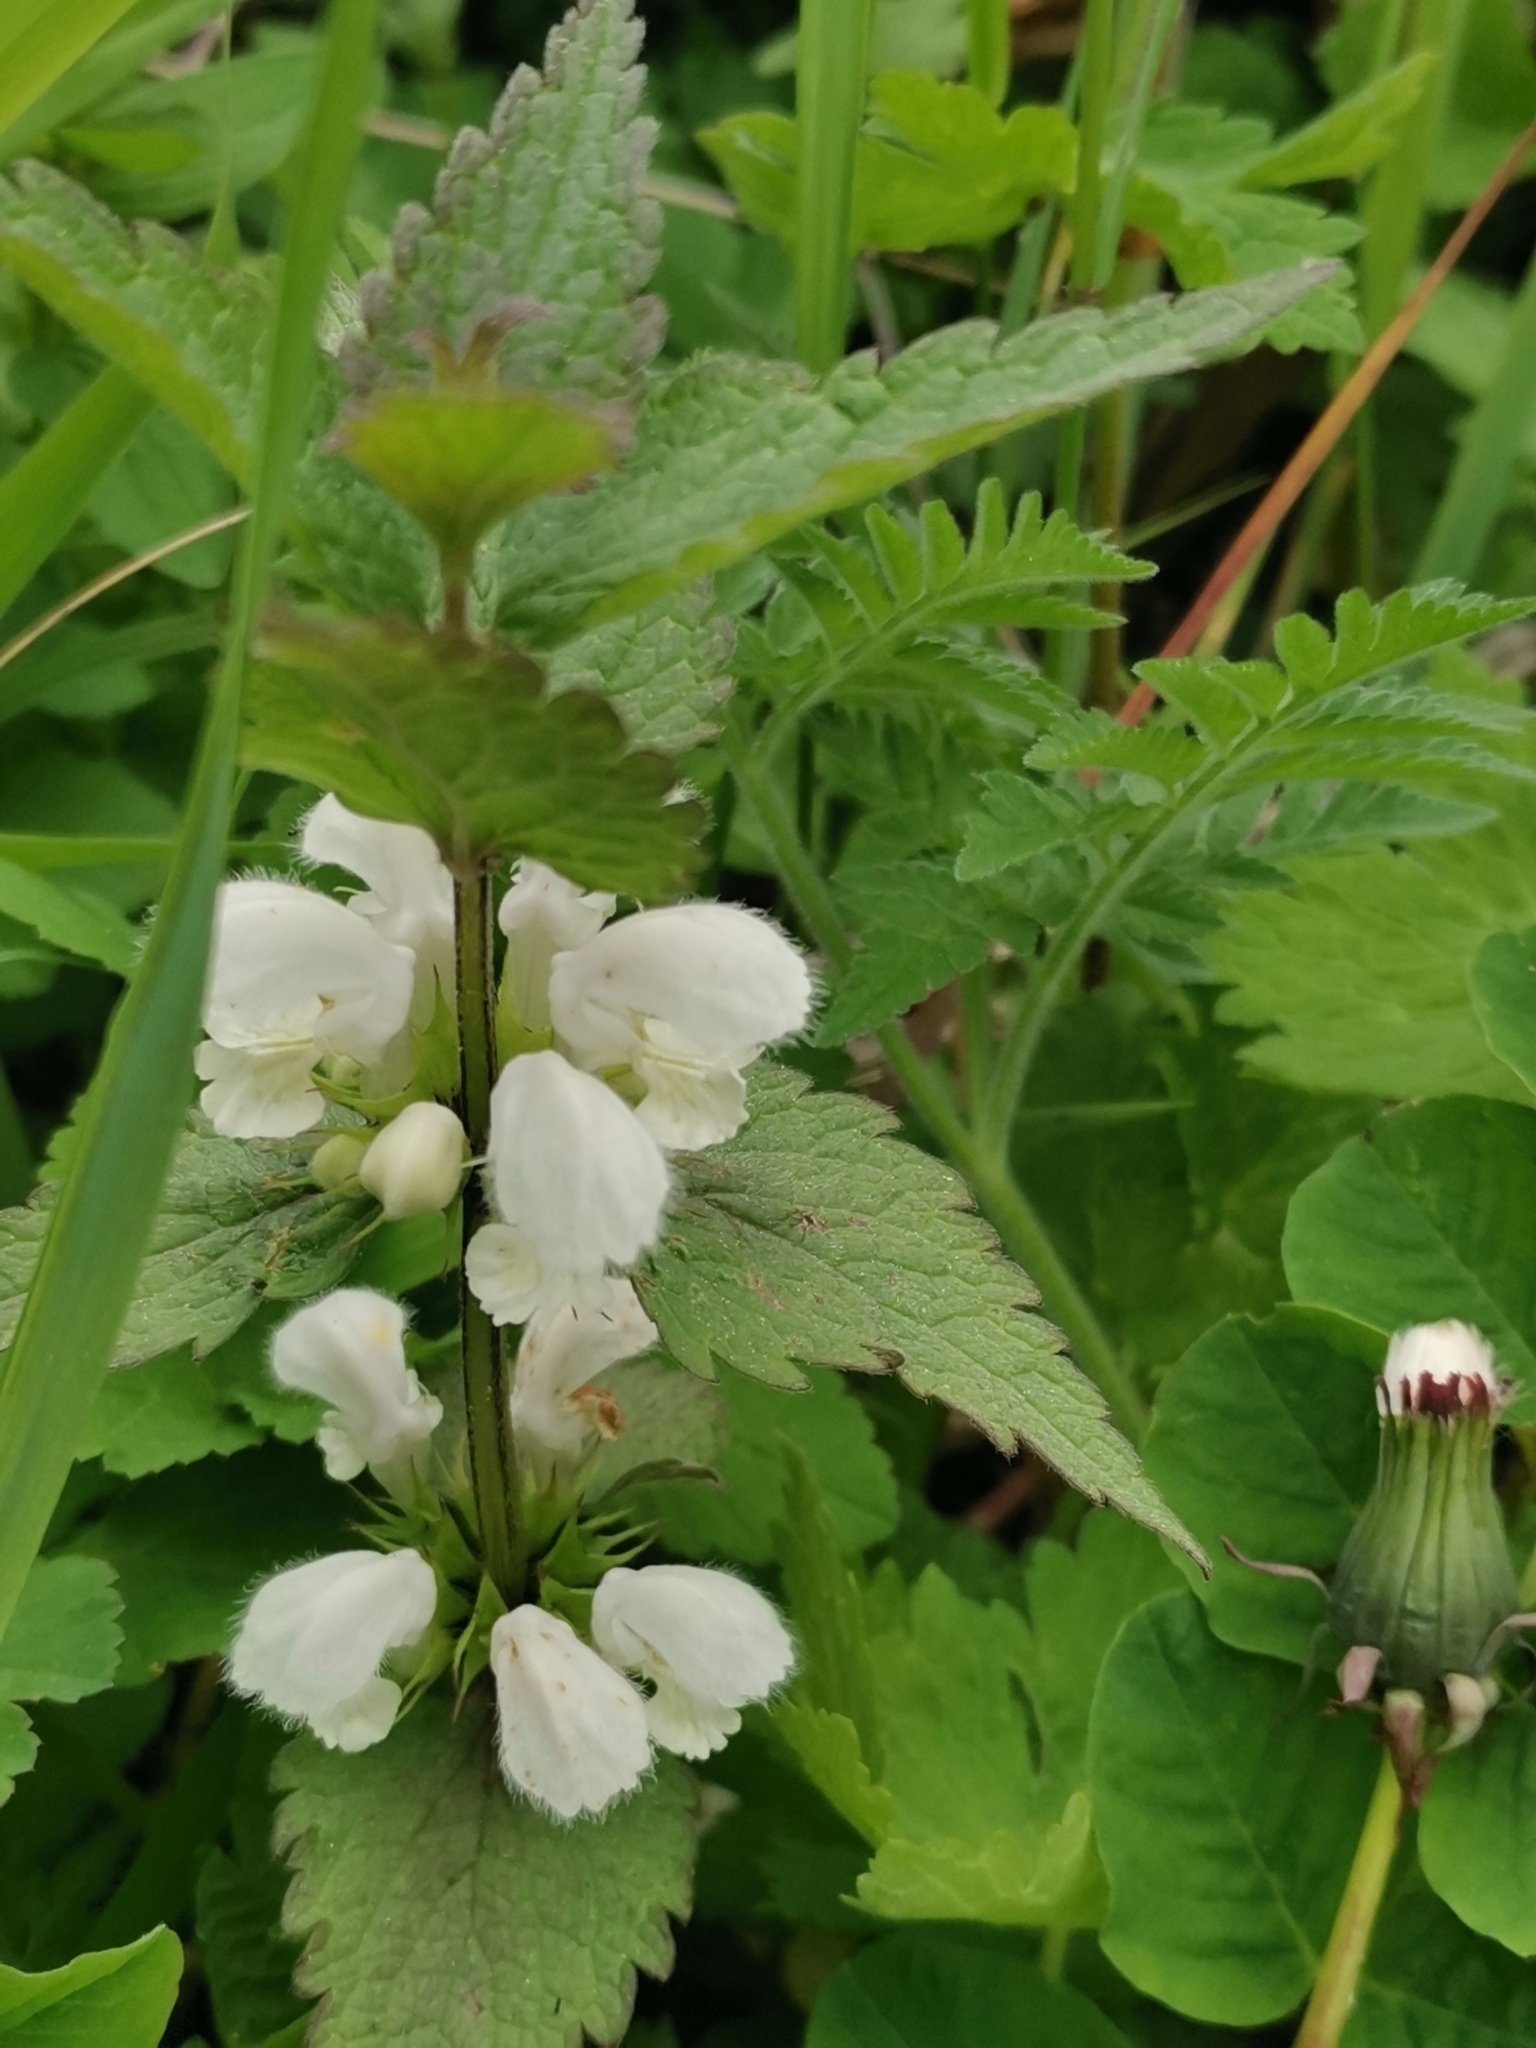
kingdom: Plantae
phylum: Tracheophyta
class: Magnoliopsida
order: Lamiales
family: Lamiaceae
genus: Lamium
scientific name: Lamium album
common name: White dead-nettle
